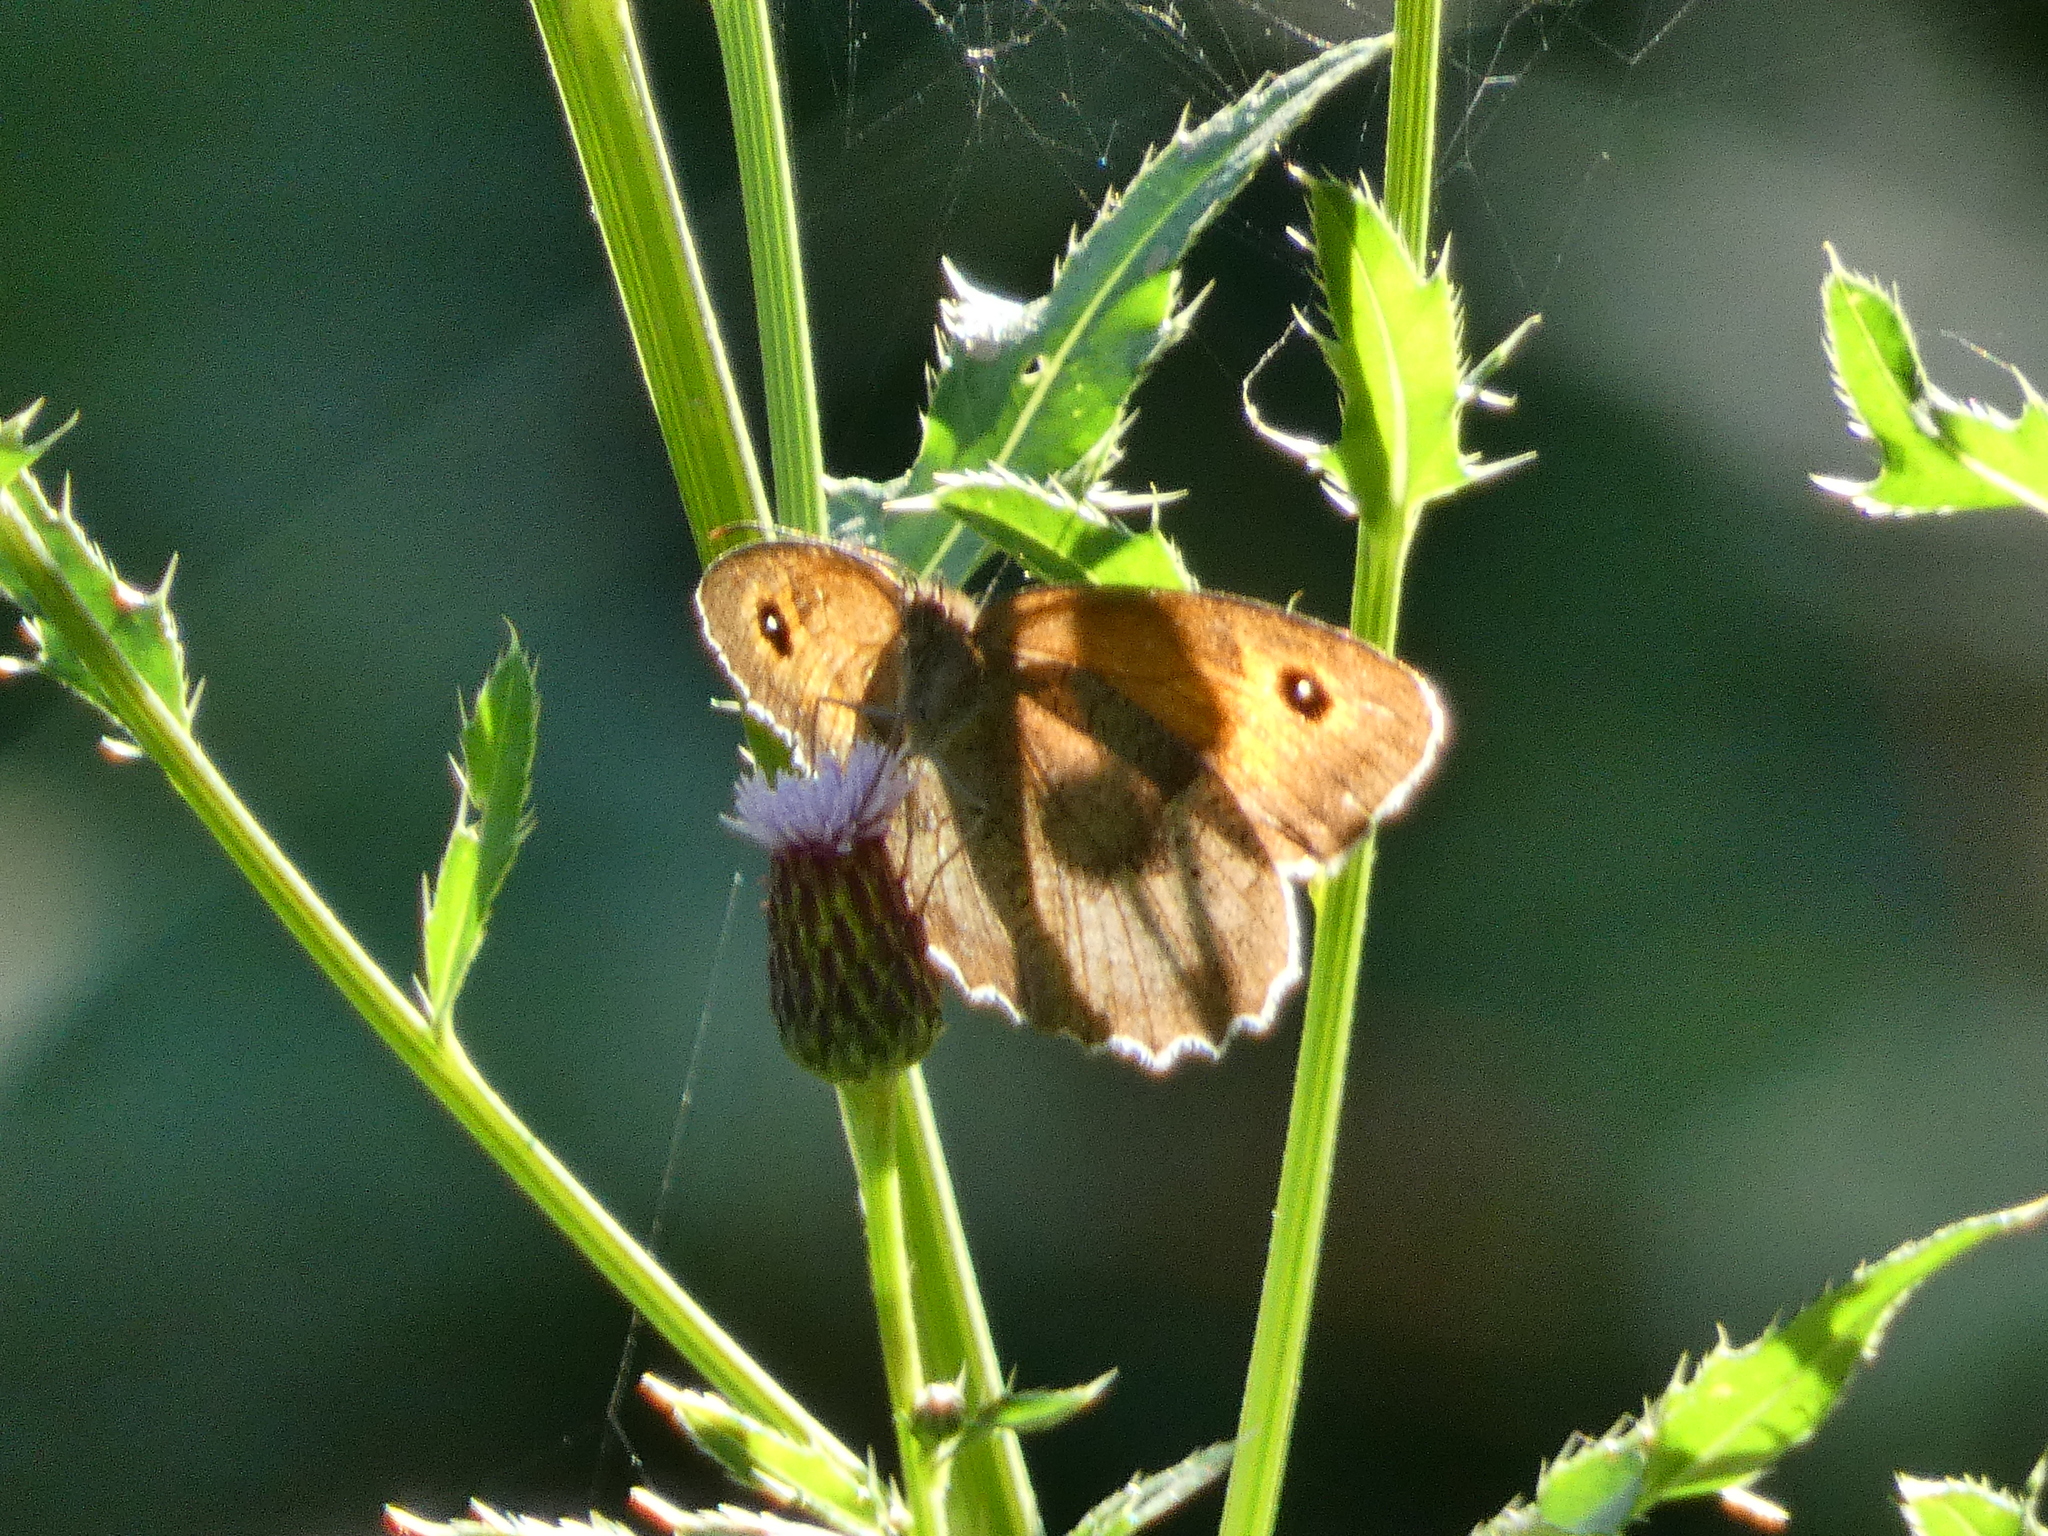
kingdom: Animalia
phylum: Arthropoda
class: Insecta
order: Lepidoptera
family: Nymphalidae
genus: Maniola
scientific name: Maniola jurtina
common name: Meadow brown
